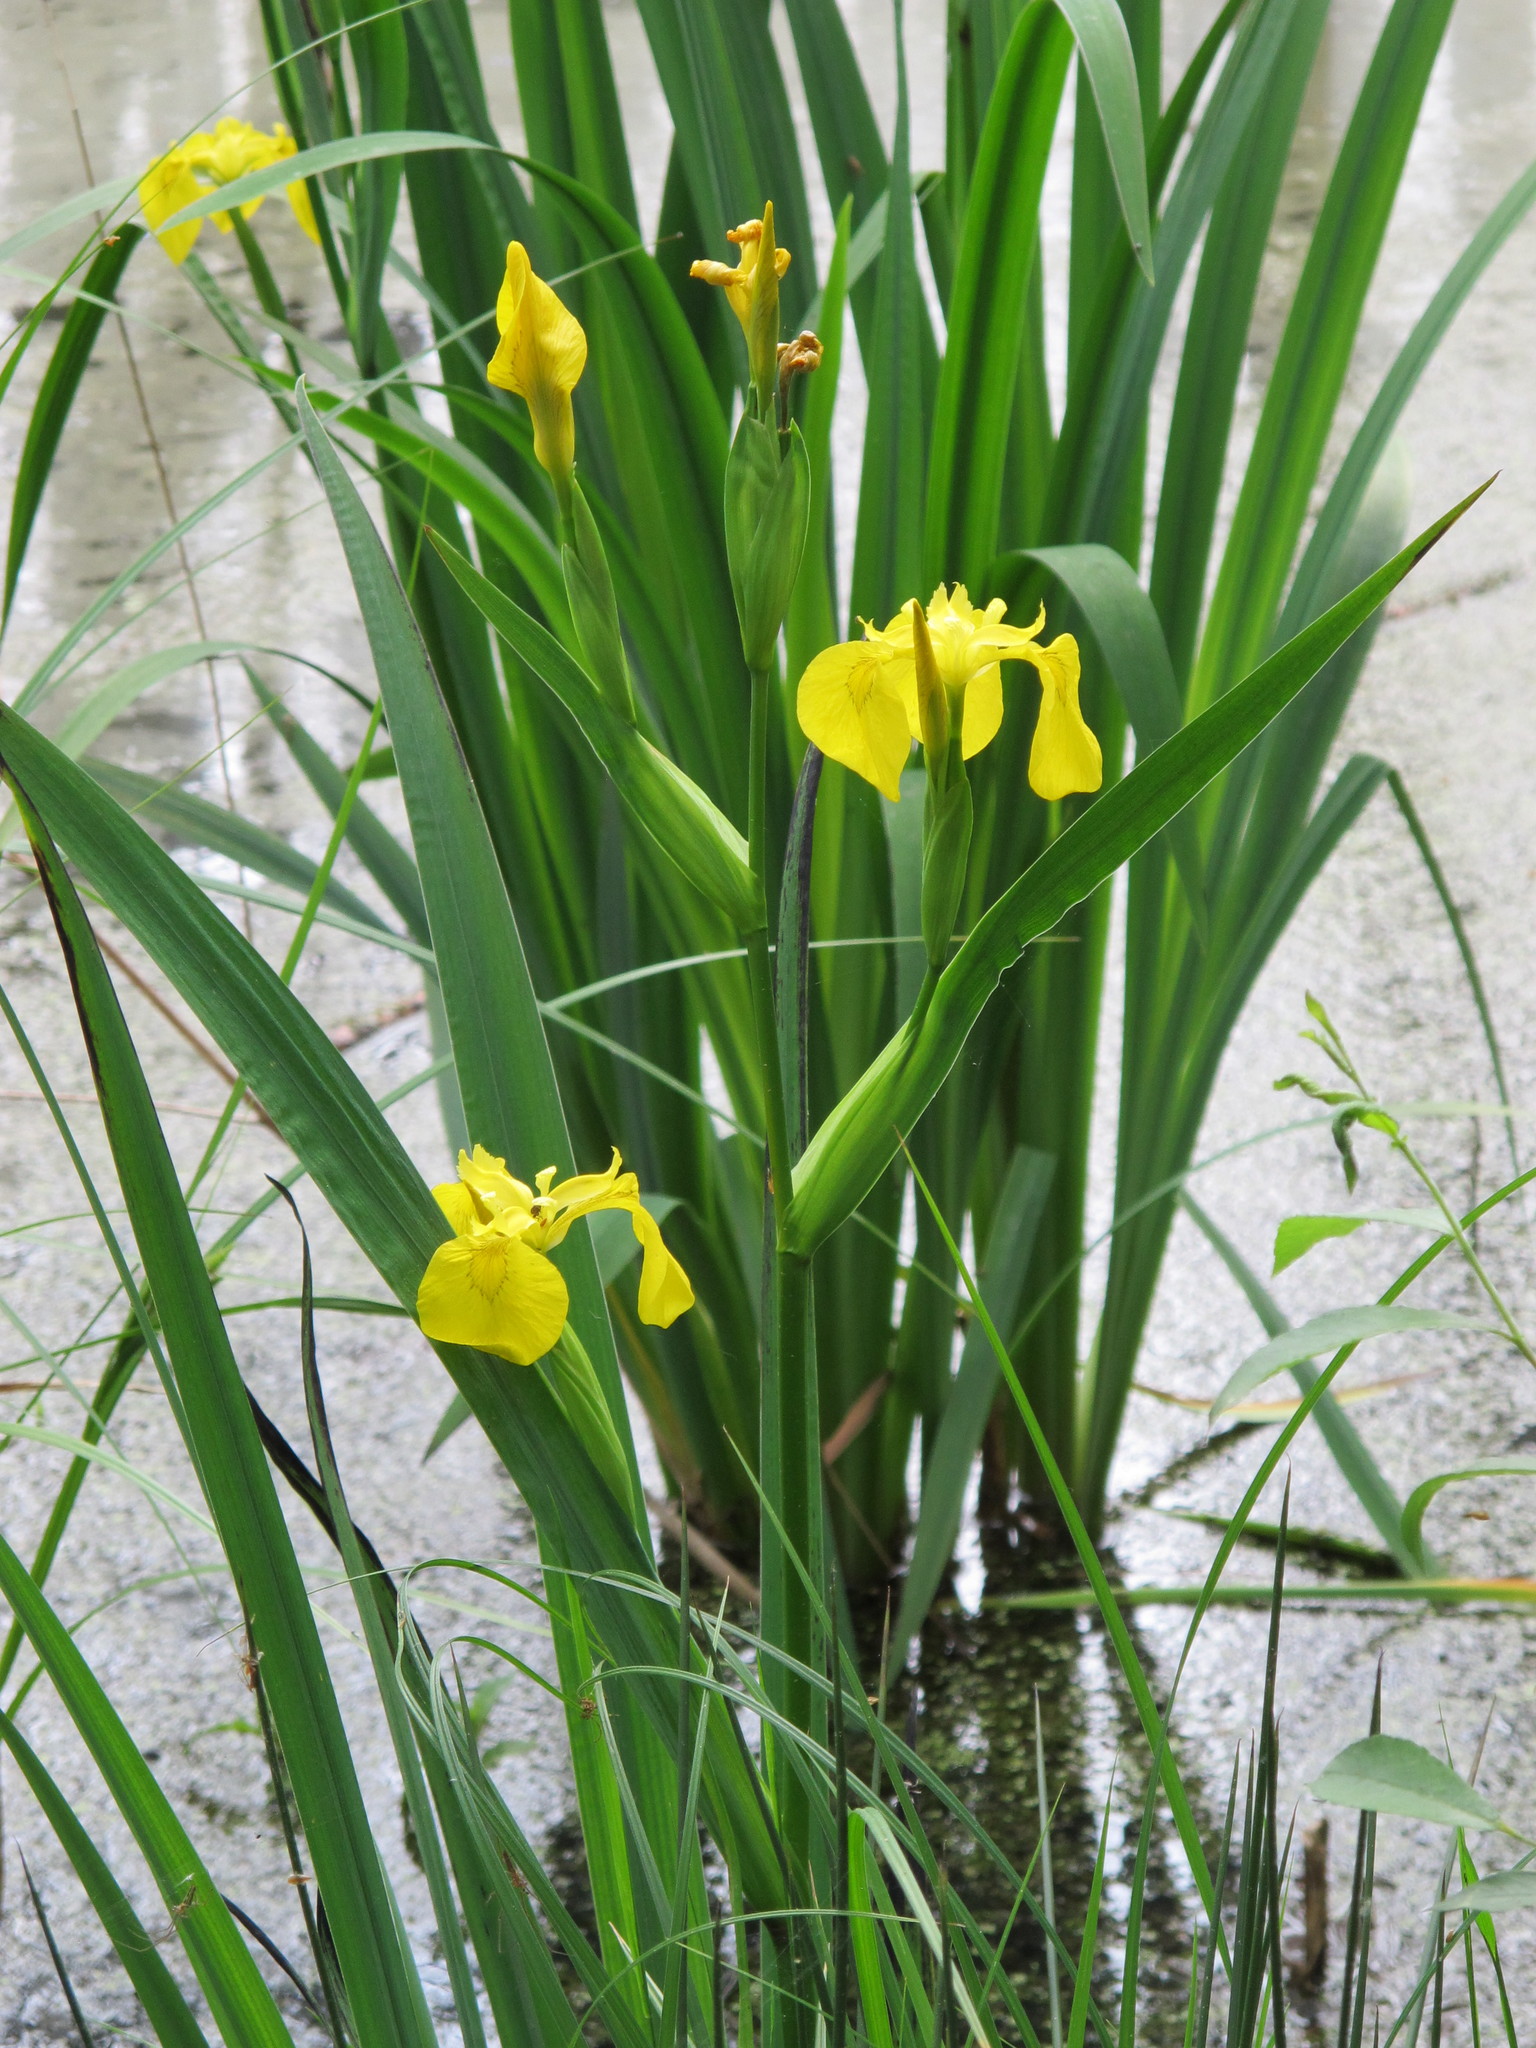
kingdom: Plantae
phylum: Tracheophyta
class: Liliopsida
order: Asparagales
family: Iridaceae
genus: Iris
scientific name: Iris pseudacorus
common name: Yellow flag
